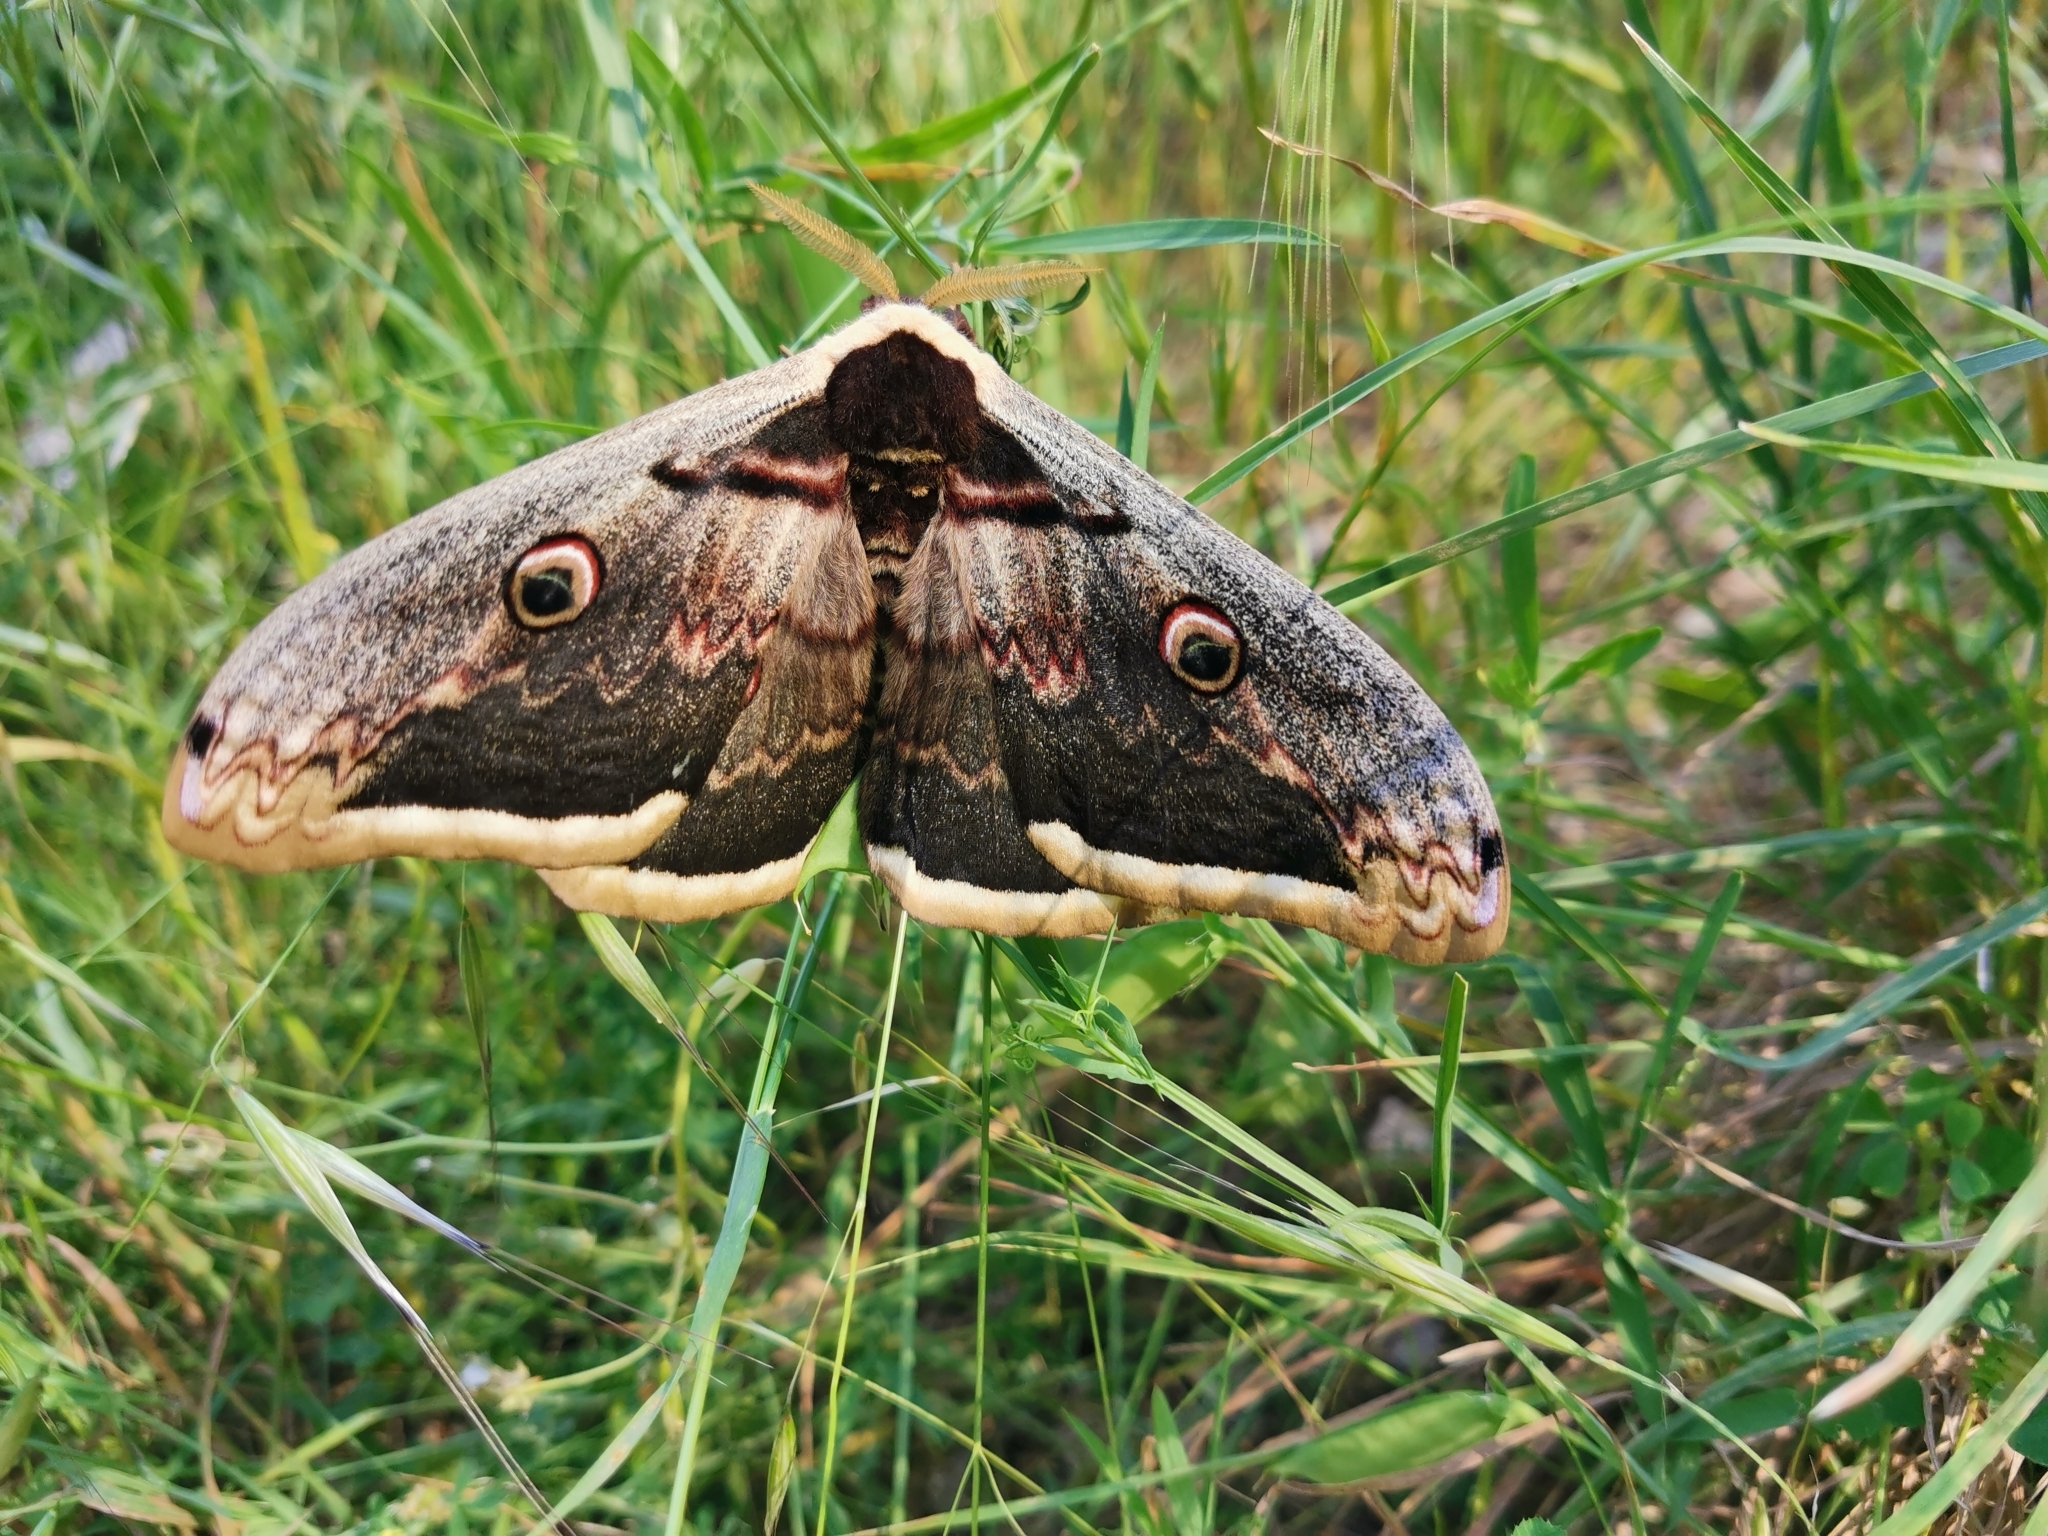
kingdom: Animalia
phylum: Arthropoda
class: Insecta
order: Lepidoptera
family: Saturniidae
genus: Saturnia
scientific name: Saturnia pyri
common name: Great peacock moth
